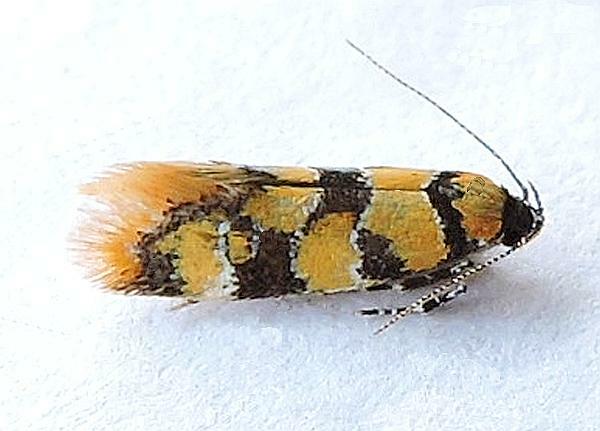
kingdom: Animalia
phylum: Arthropoda
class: Insecta
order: Lepidoptera
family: Oecophoridae
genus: Decantha
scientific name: Decantha borkhausenii
